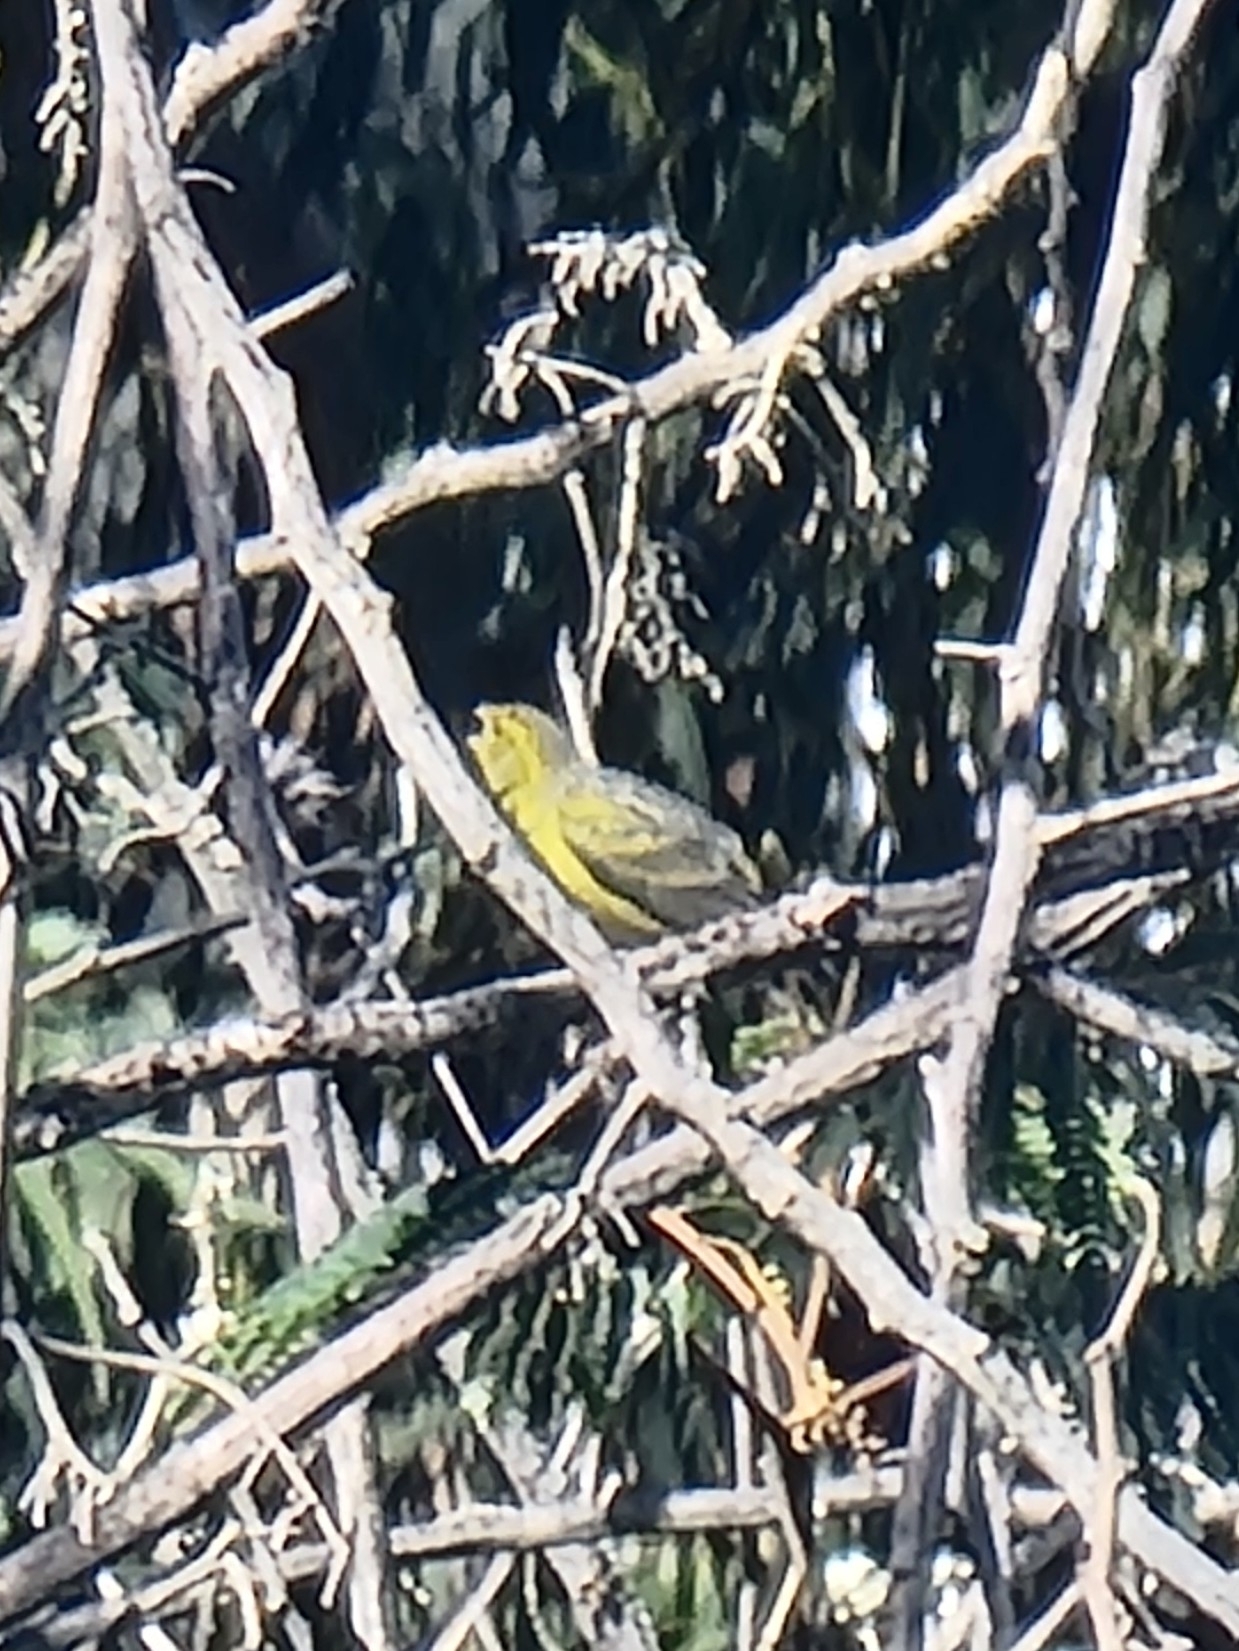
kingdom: Animalia
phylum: Chordata
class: Aves
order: Passeriformes
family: Fringillidae
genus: Serinus
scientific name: Serinus canaria
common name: Atlantic canary
